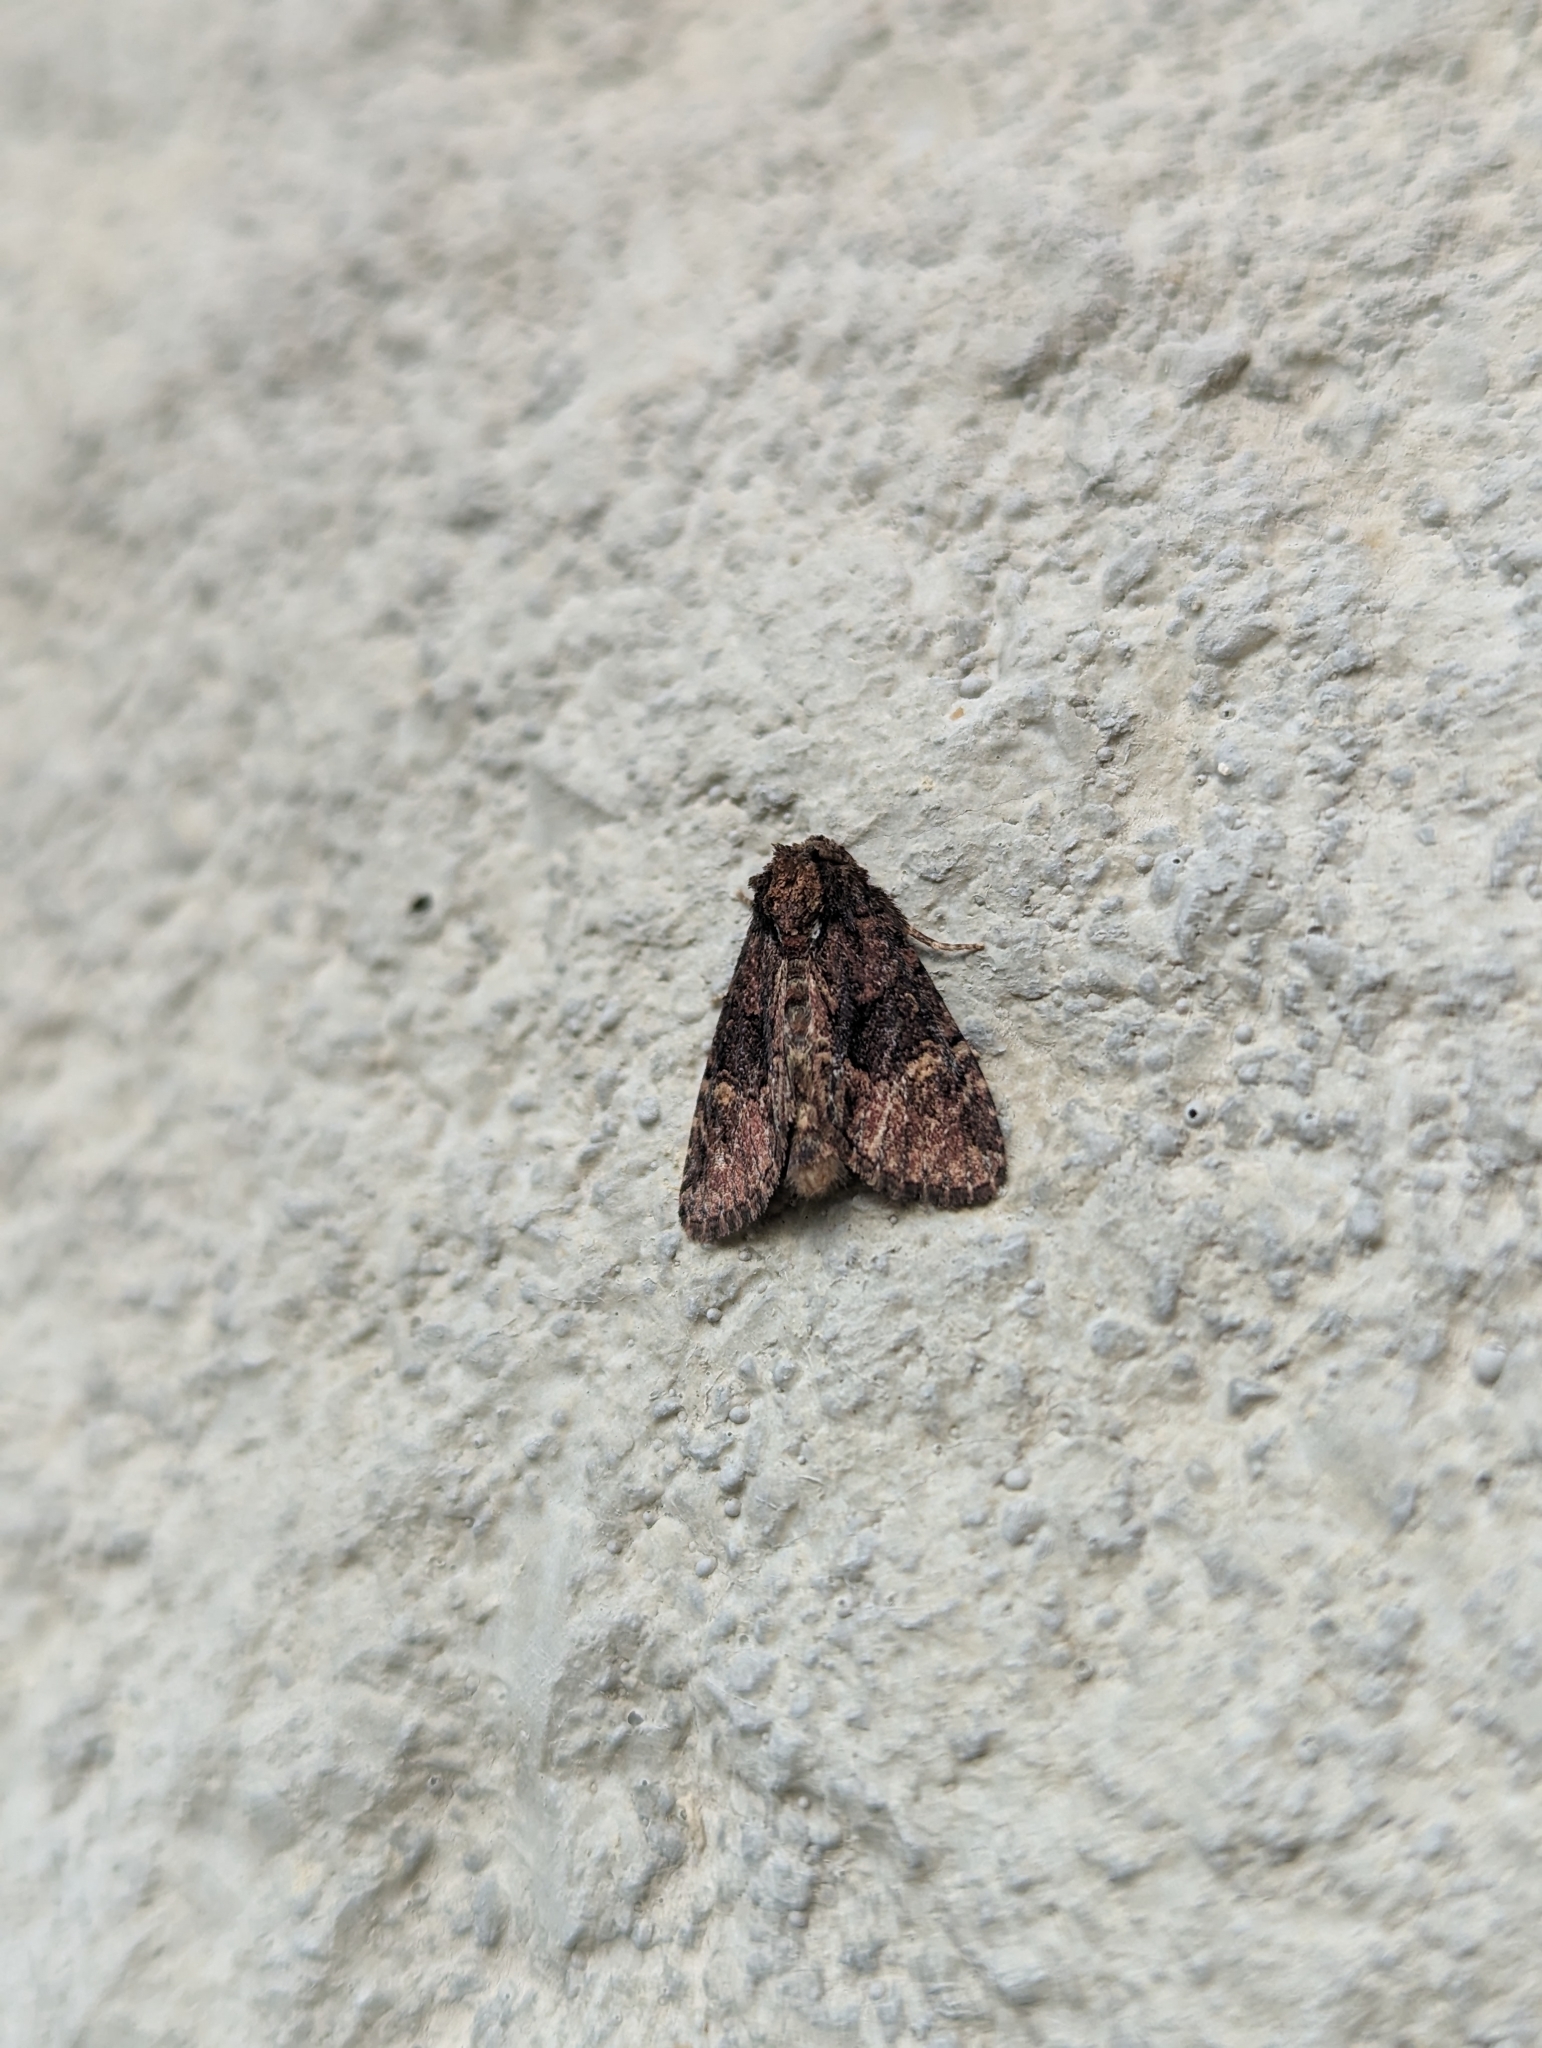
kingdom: Animalia
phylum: Arthropoda
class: Insecta
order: Lepidoptera
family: Noctuidae
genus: Phosphila
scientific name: Phosphila turbulenta
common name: Turbulent phosphila moth
